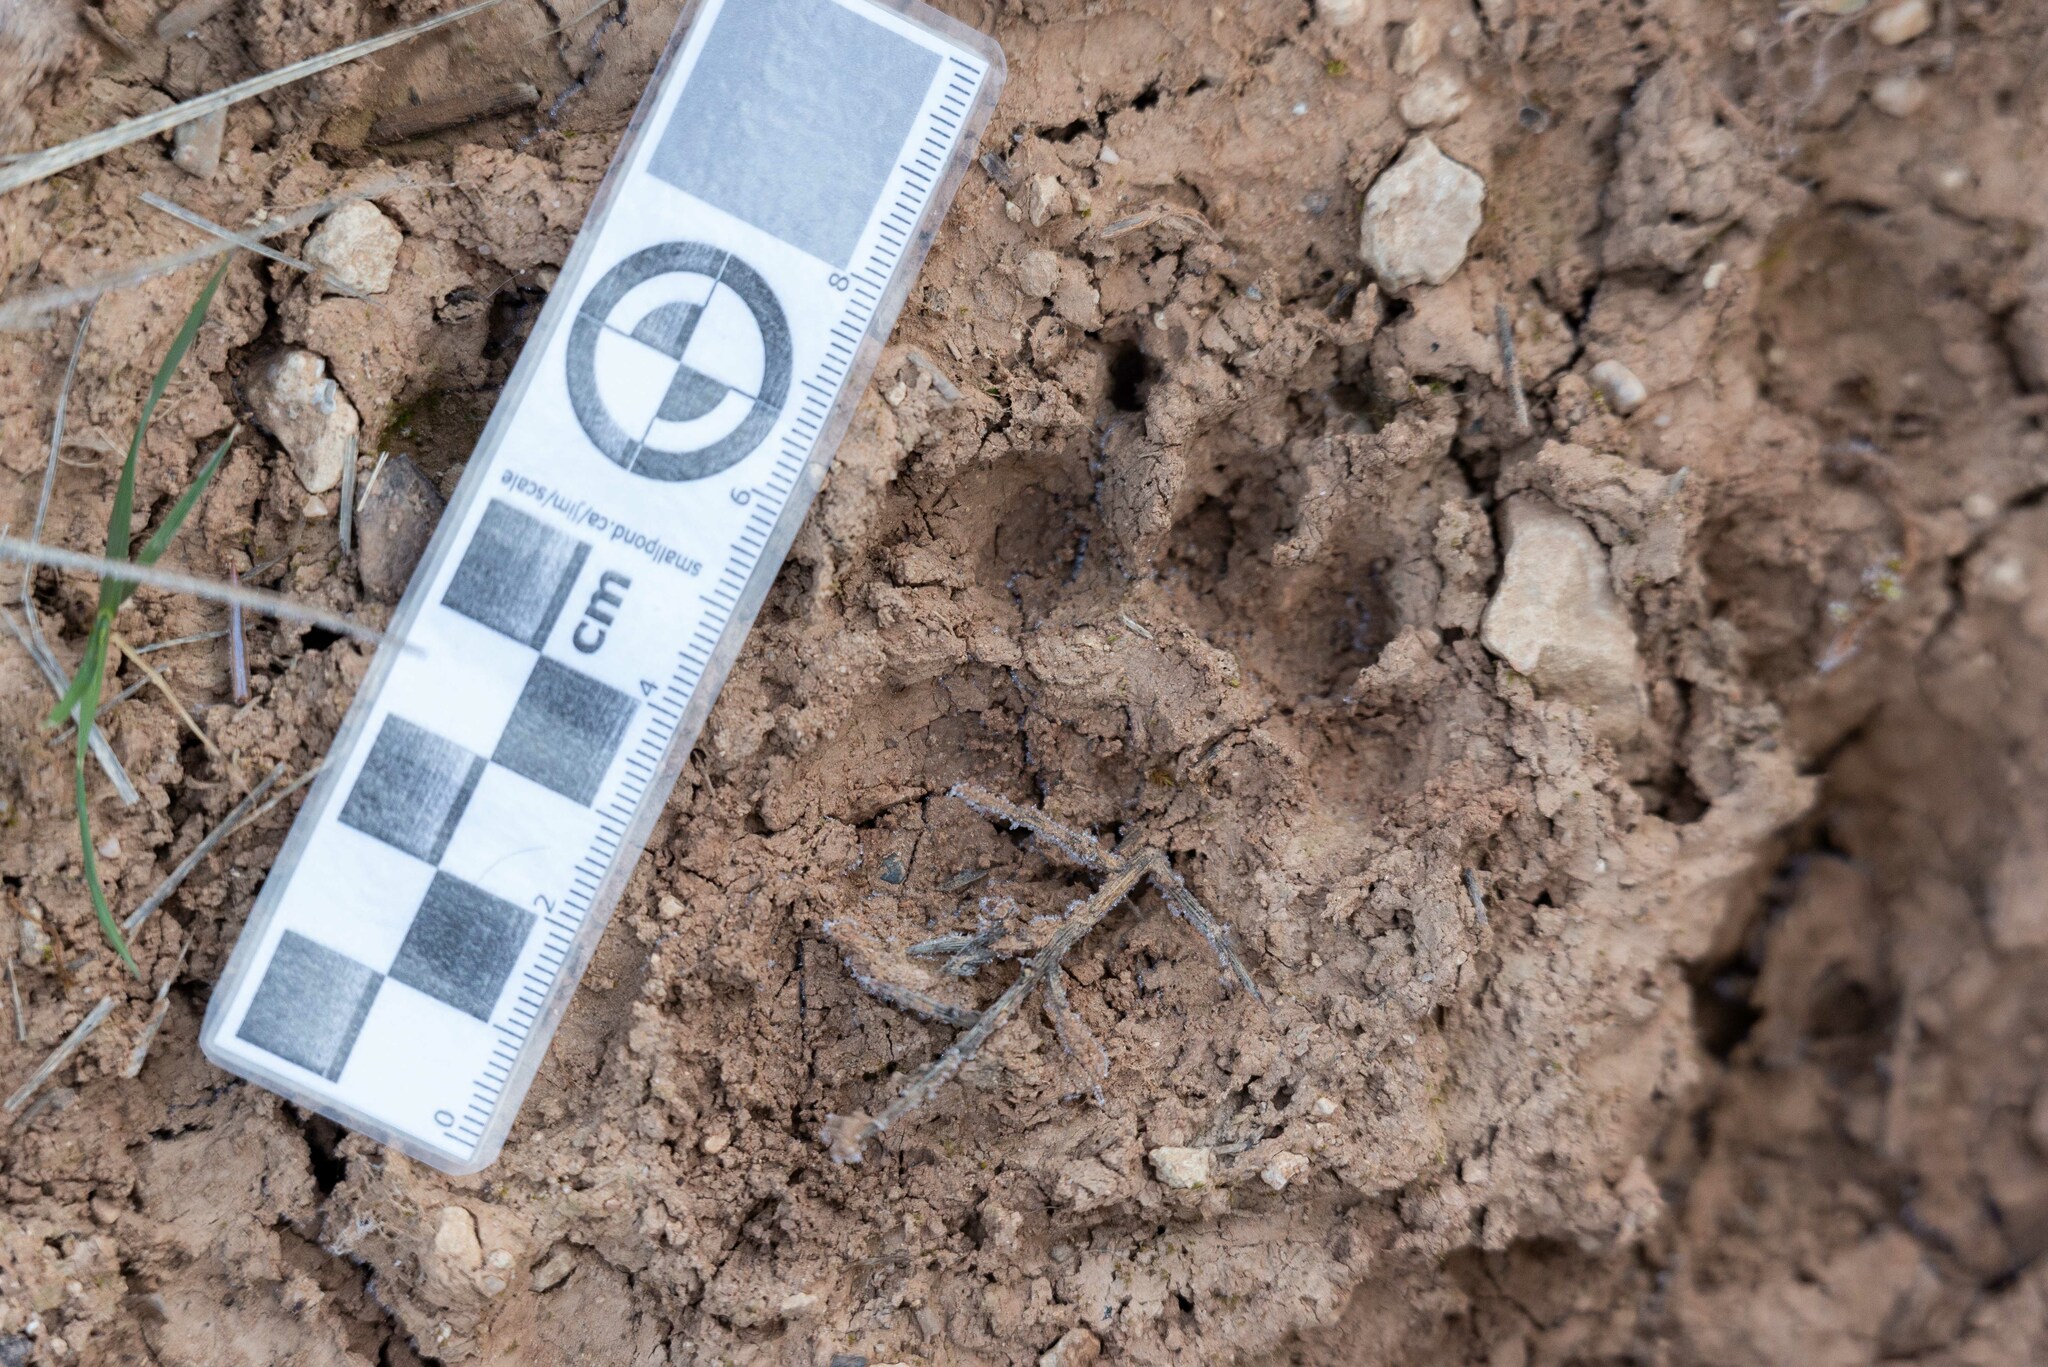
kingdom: Animalia
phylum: Chordata
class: Mammalia
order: Carnivora
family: Mustelidae
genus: Meles
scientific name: Meles meles
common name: Eurasian badger
